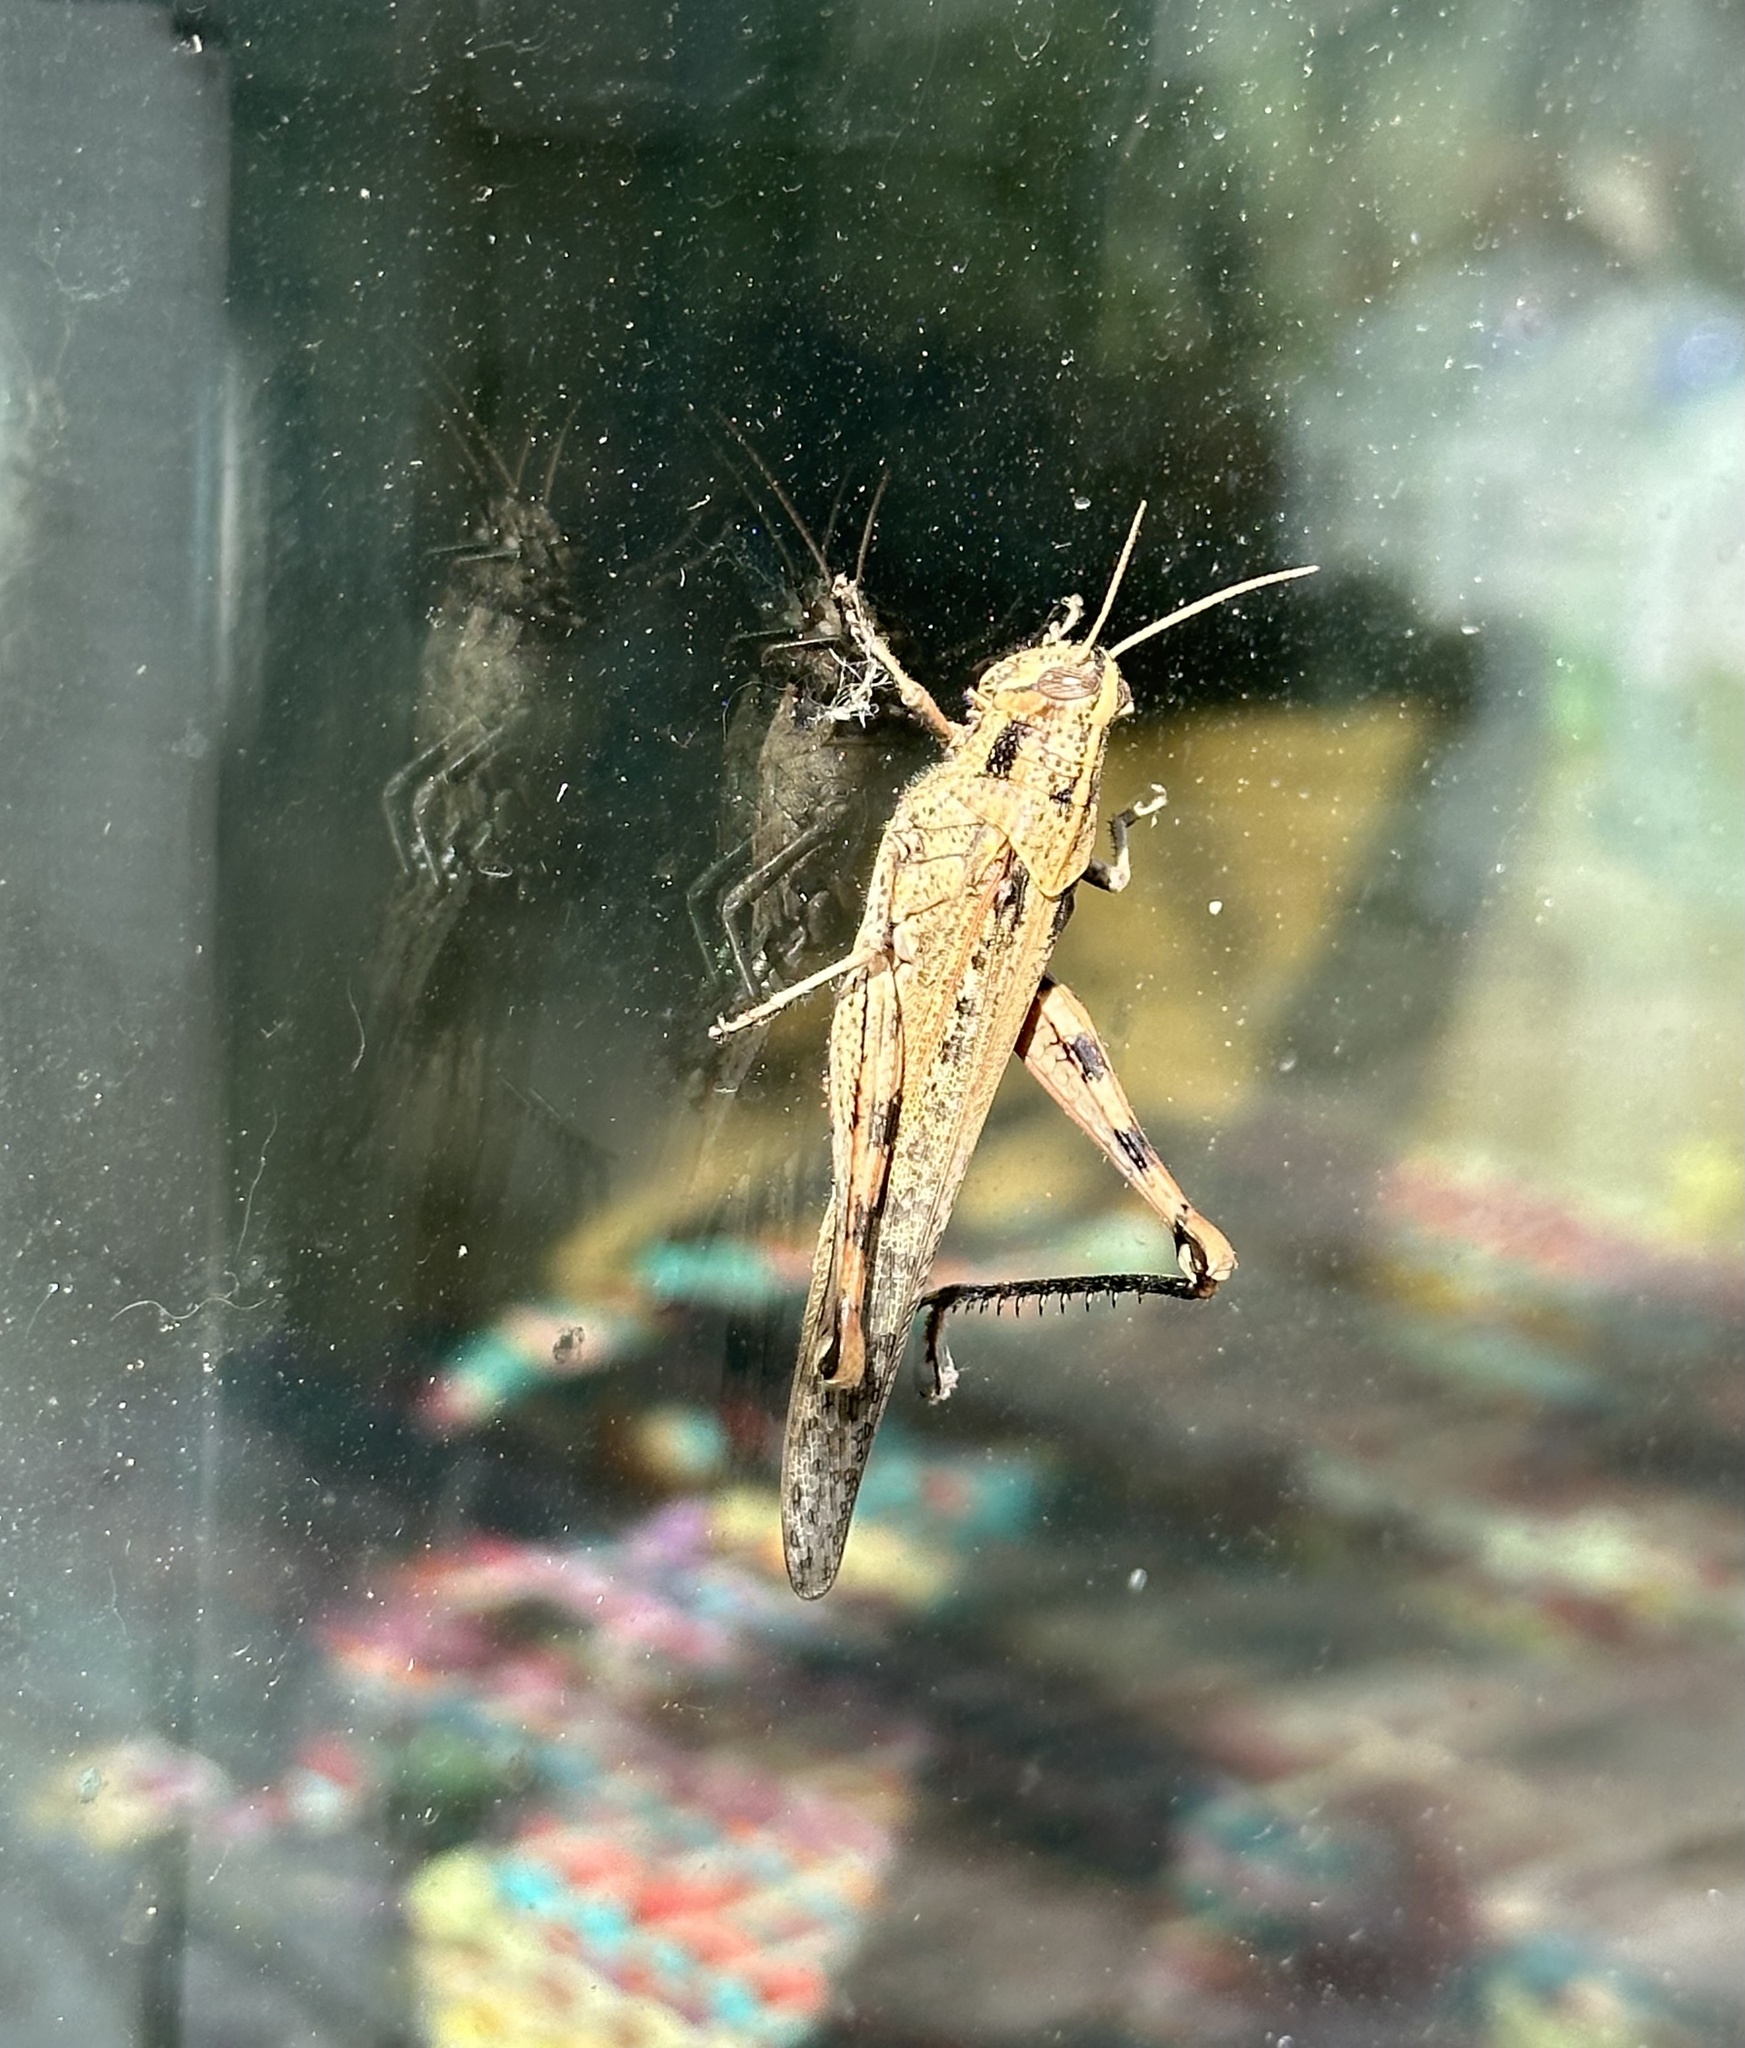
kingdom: Animalia
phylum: Arthropoda
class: Insecta
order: Orthoptera
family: Acrididae
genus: Schistocerca
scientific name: Schistocerca nitens
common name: Vagrant grasshopper
